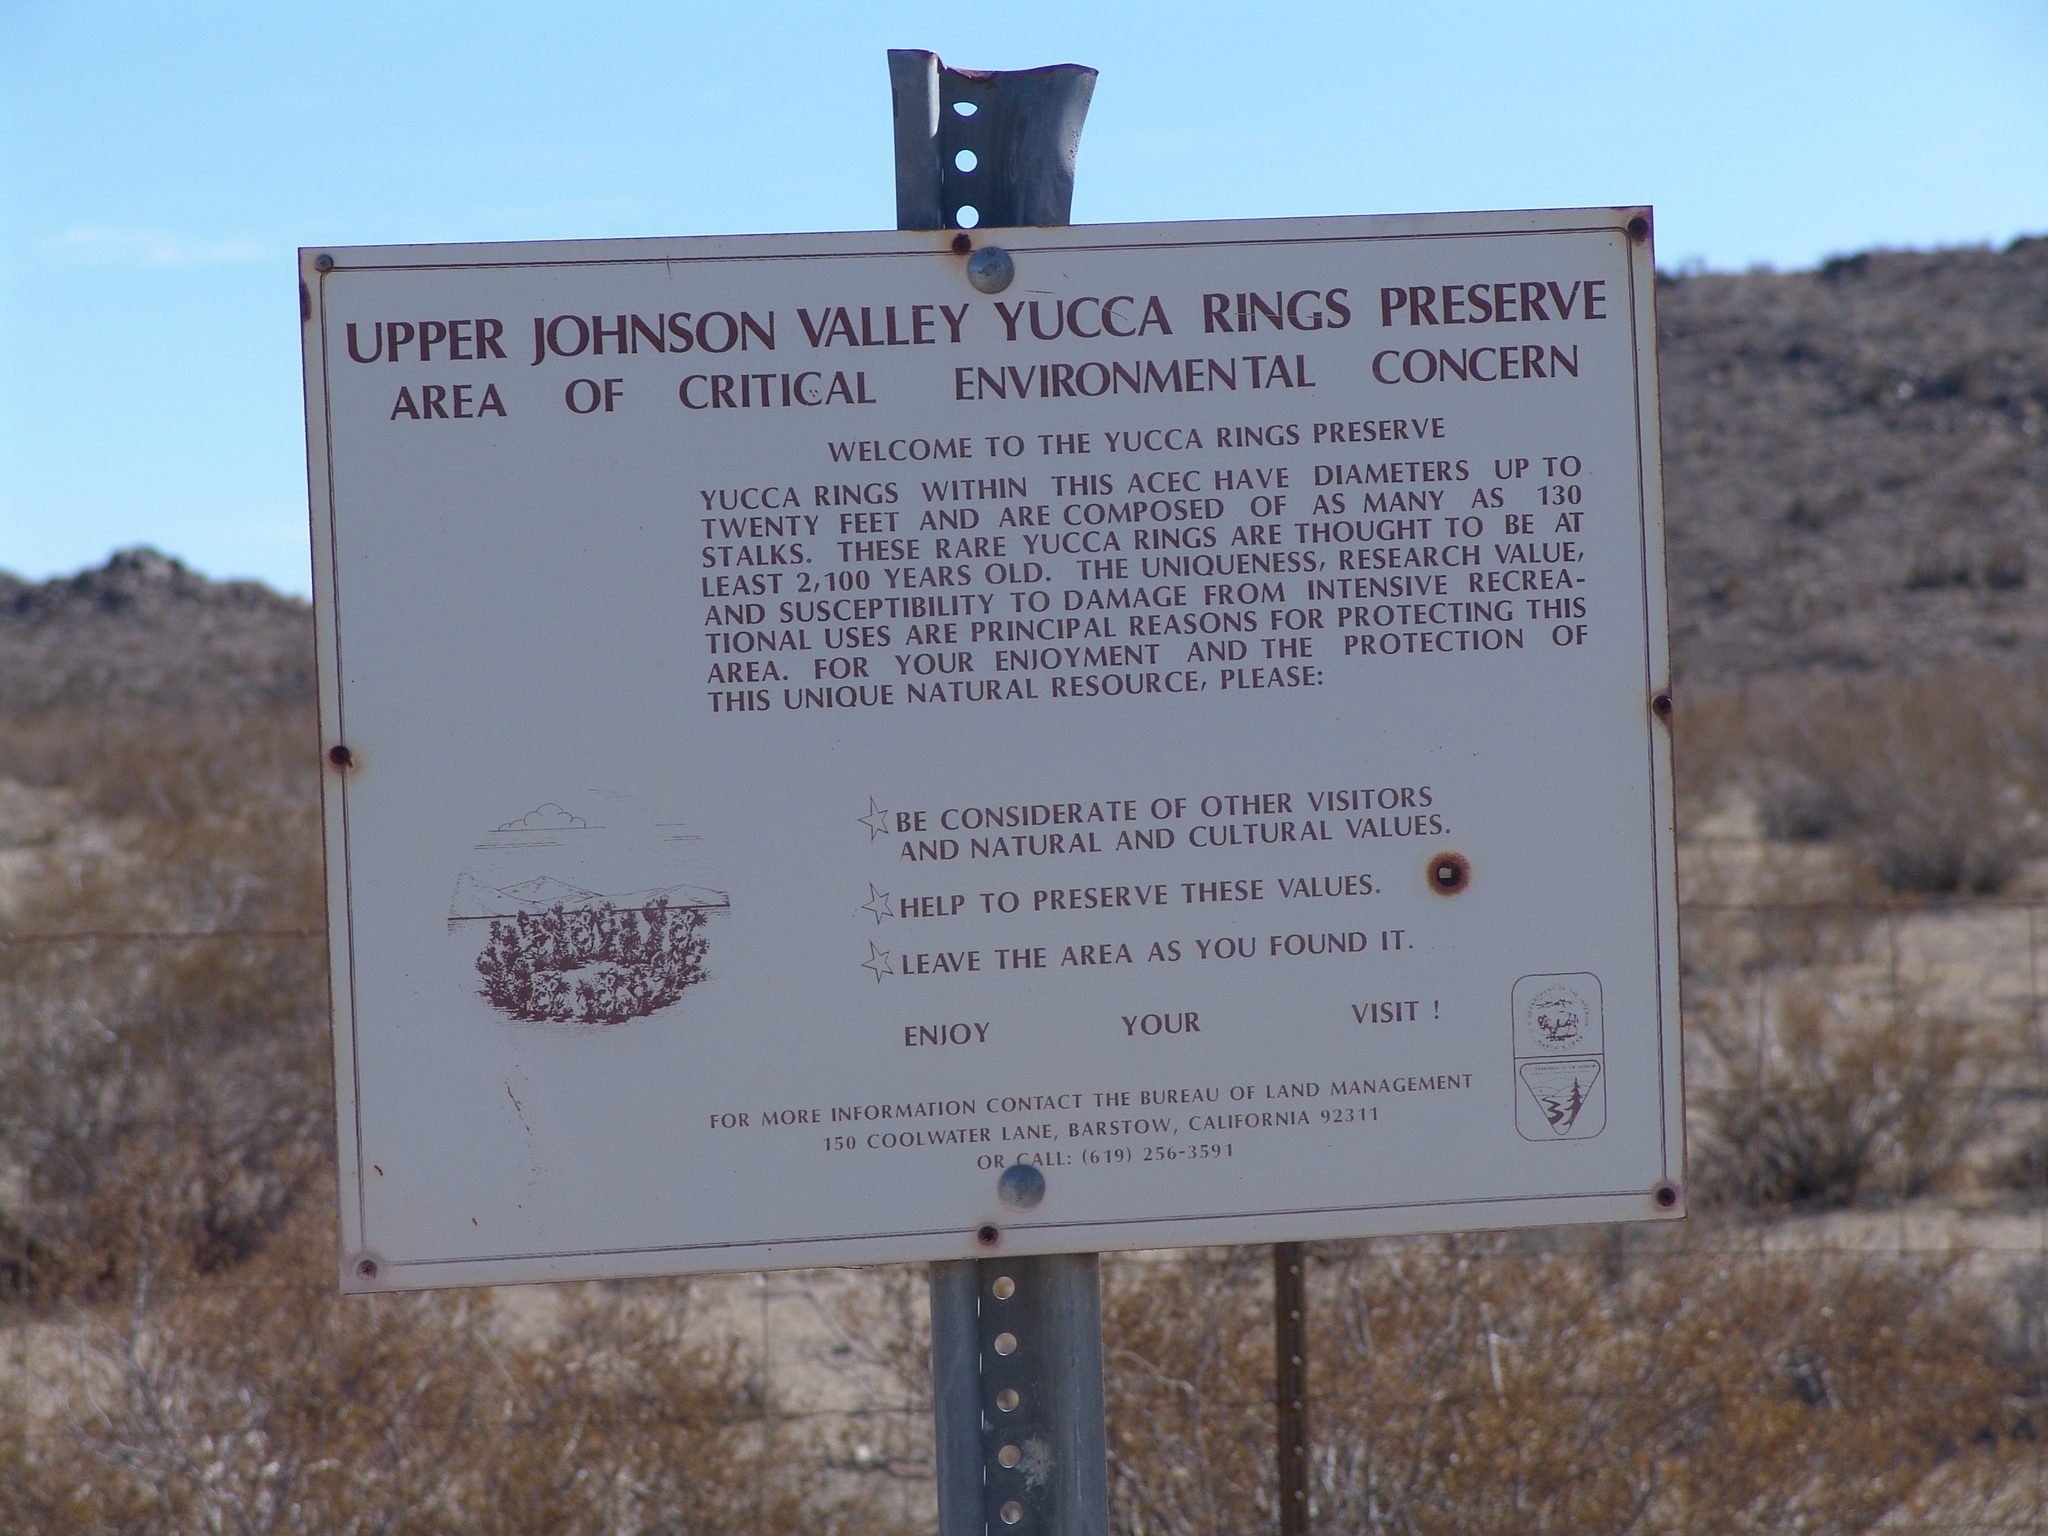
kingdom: Plantae
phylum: Tracheophyta
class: Liliopsida
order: Asparagales
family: Asparagaceae
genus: Yucca
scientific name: Yucca schidigera
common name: Mojave yucca
